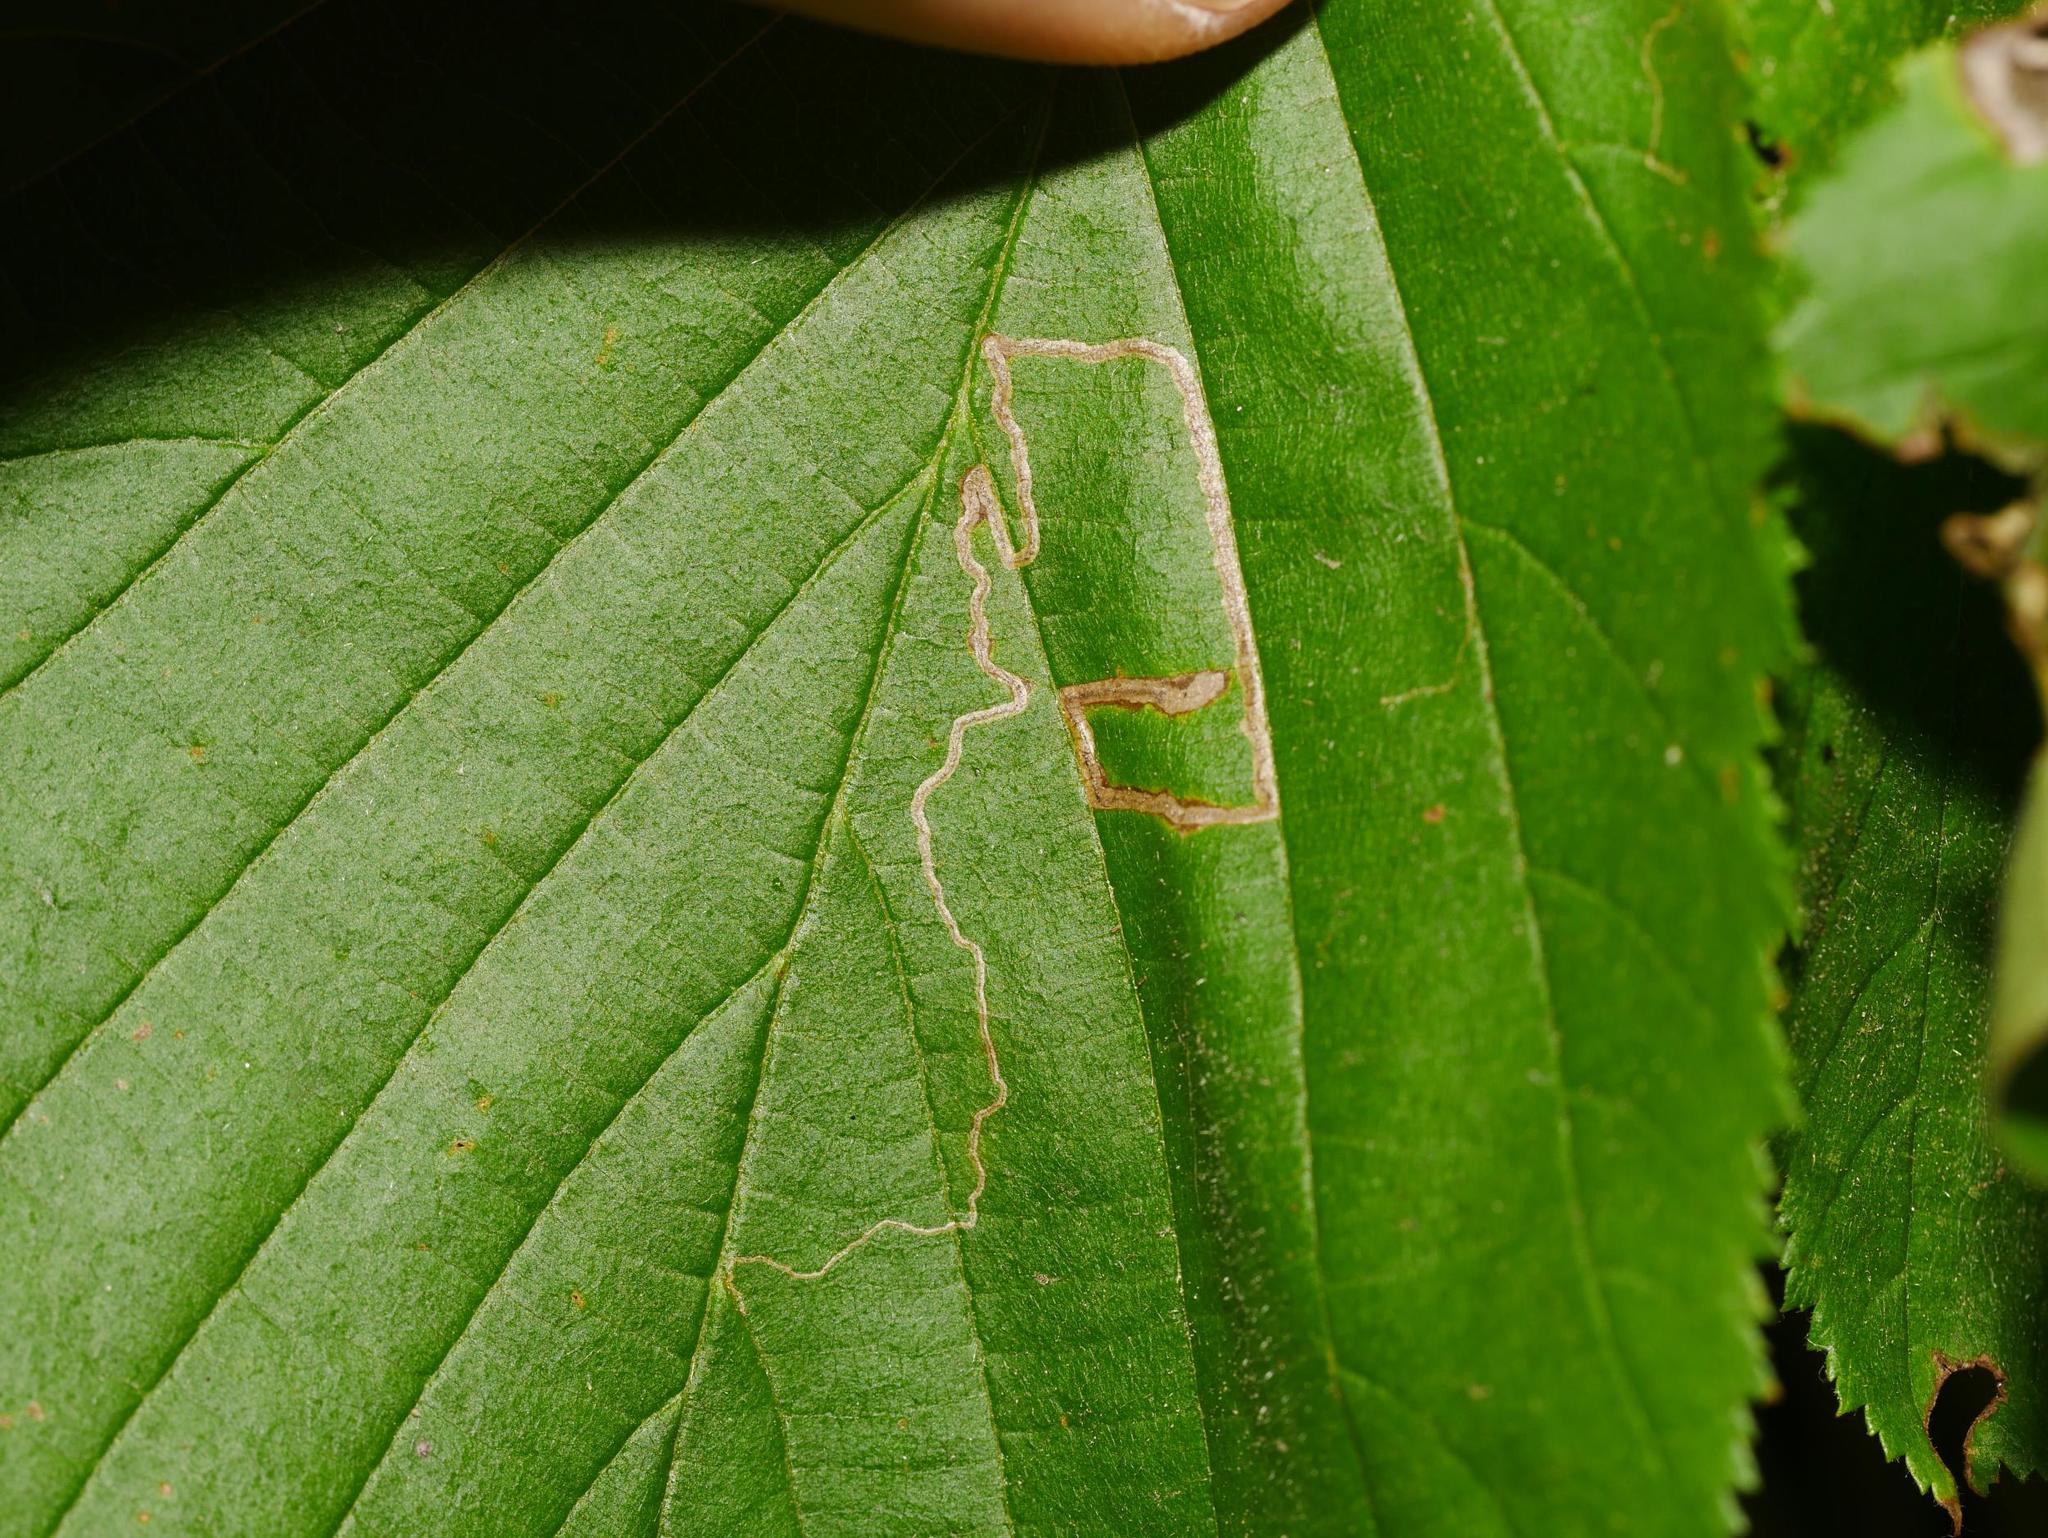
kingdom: Animalia
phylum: Arthropoda
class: Insecta
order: Lepidoptera
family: Nepticulidae
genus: Stigmella
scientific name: Stigmella microtheriella
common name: Nut-tree pigmy
